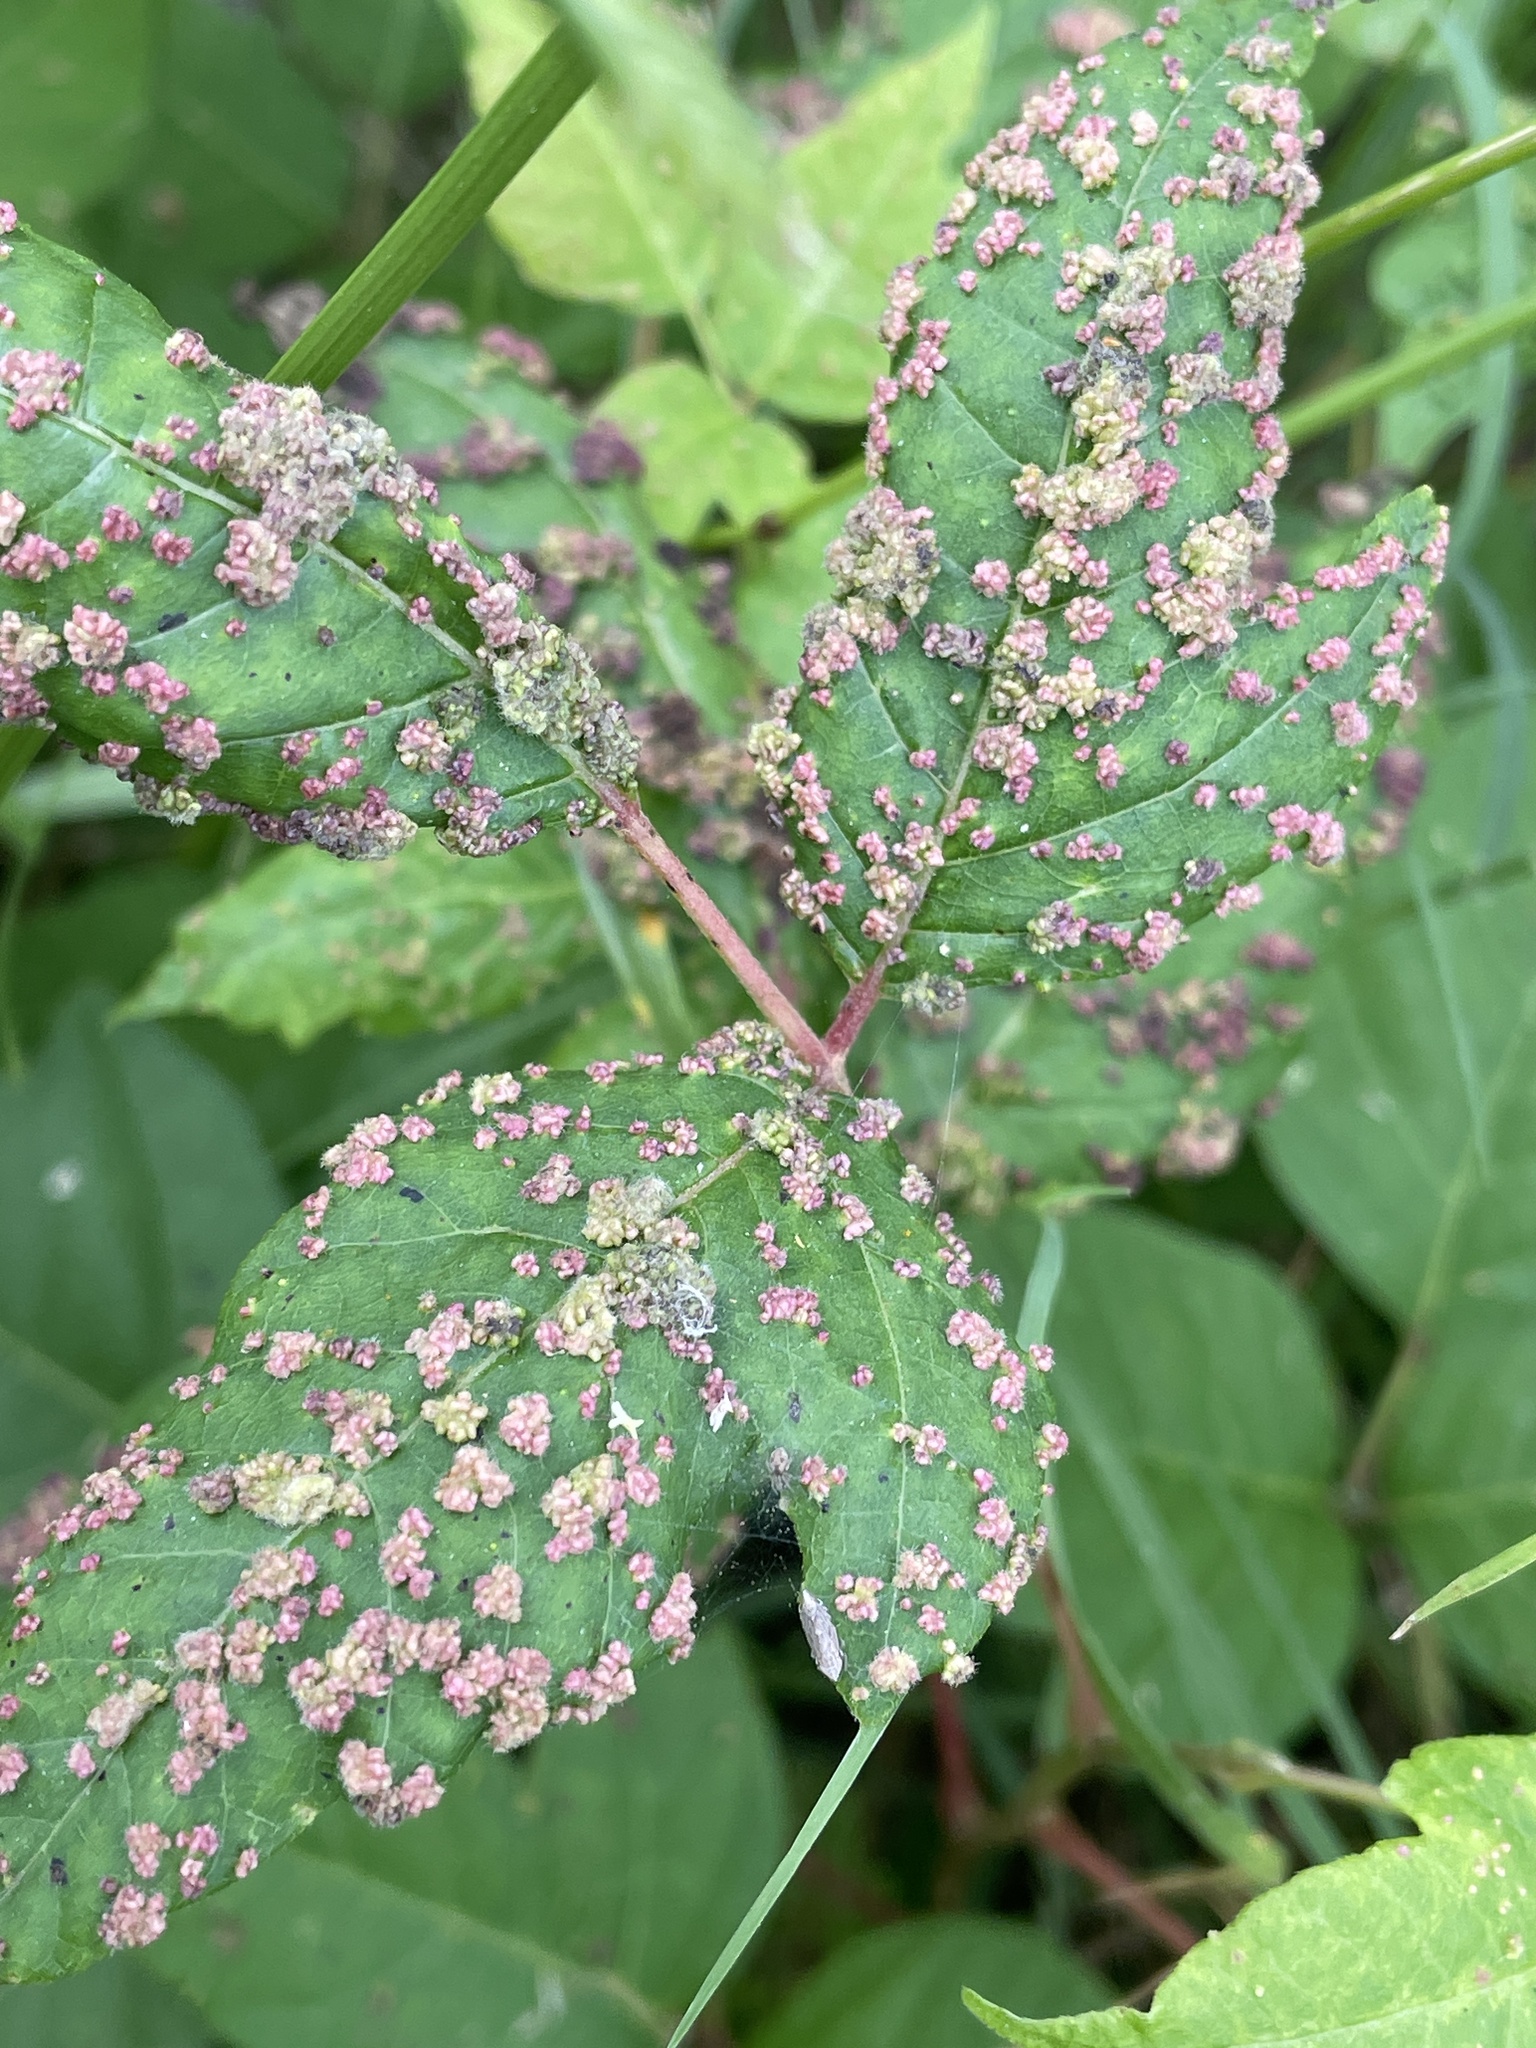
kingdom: Animalia
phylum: Arthropoda
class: Arachnida
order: Trombidiformes
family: Eriophyidae
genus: Aculops
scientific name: Aculops
